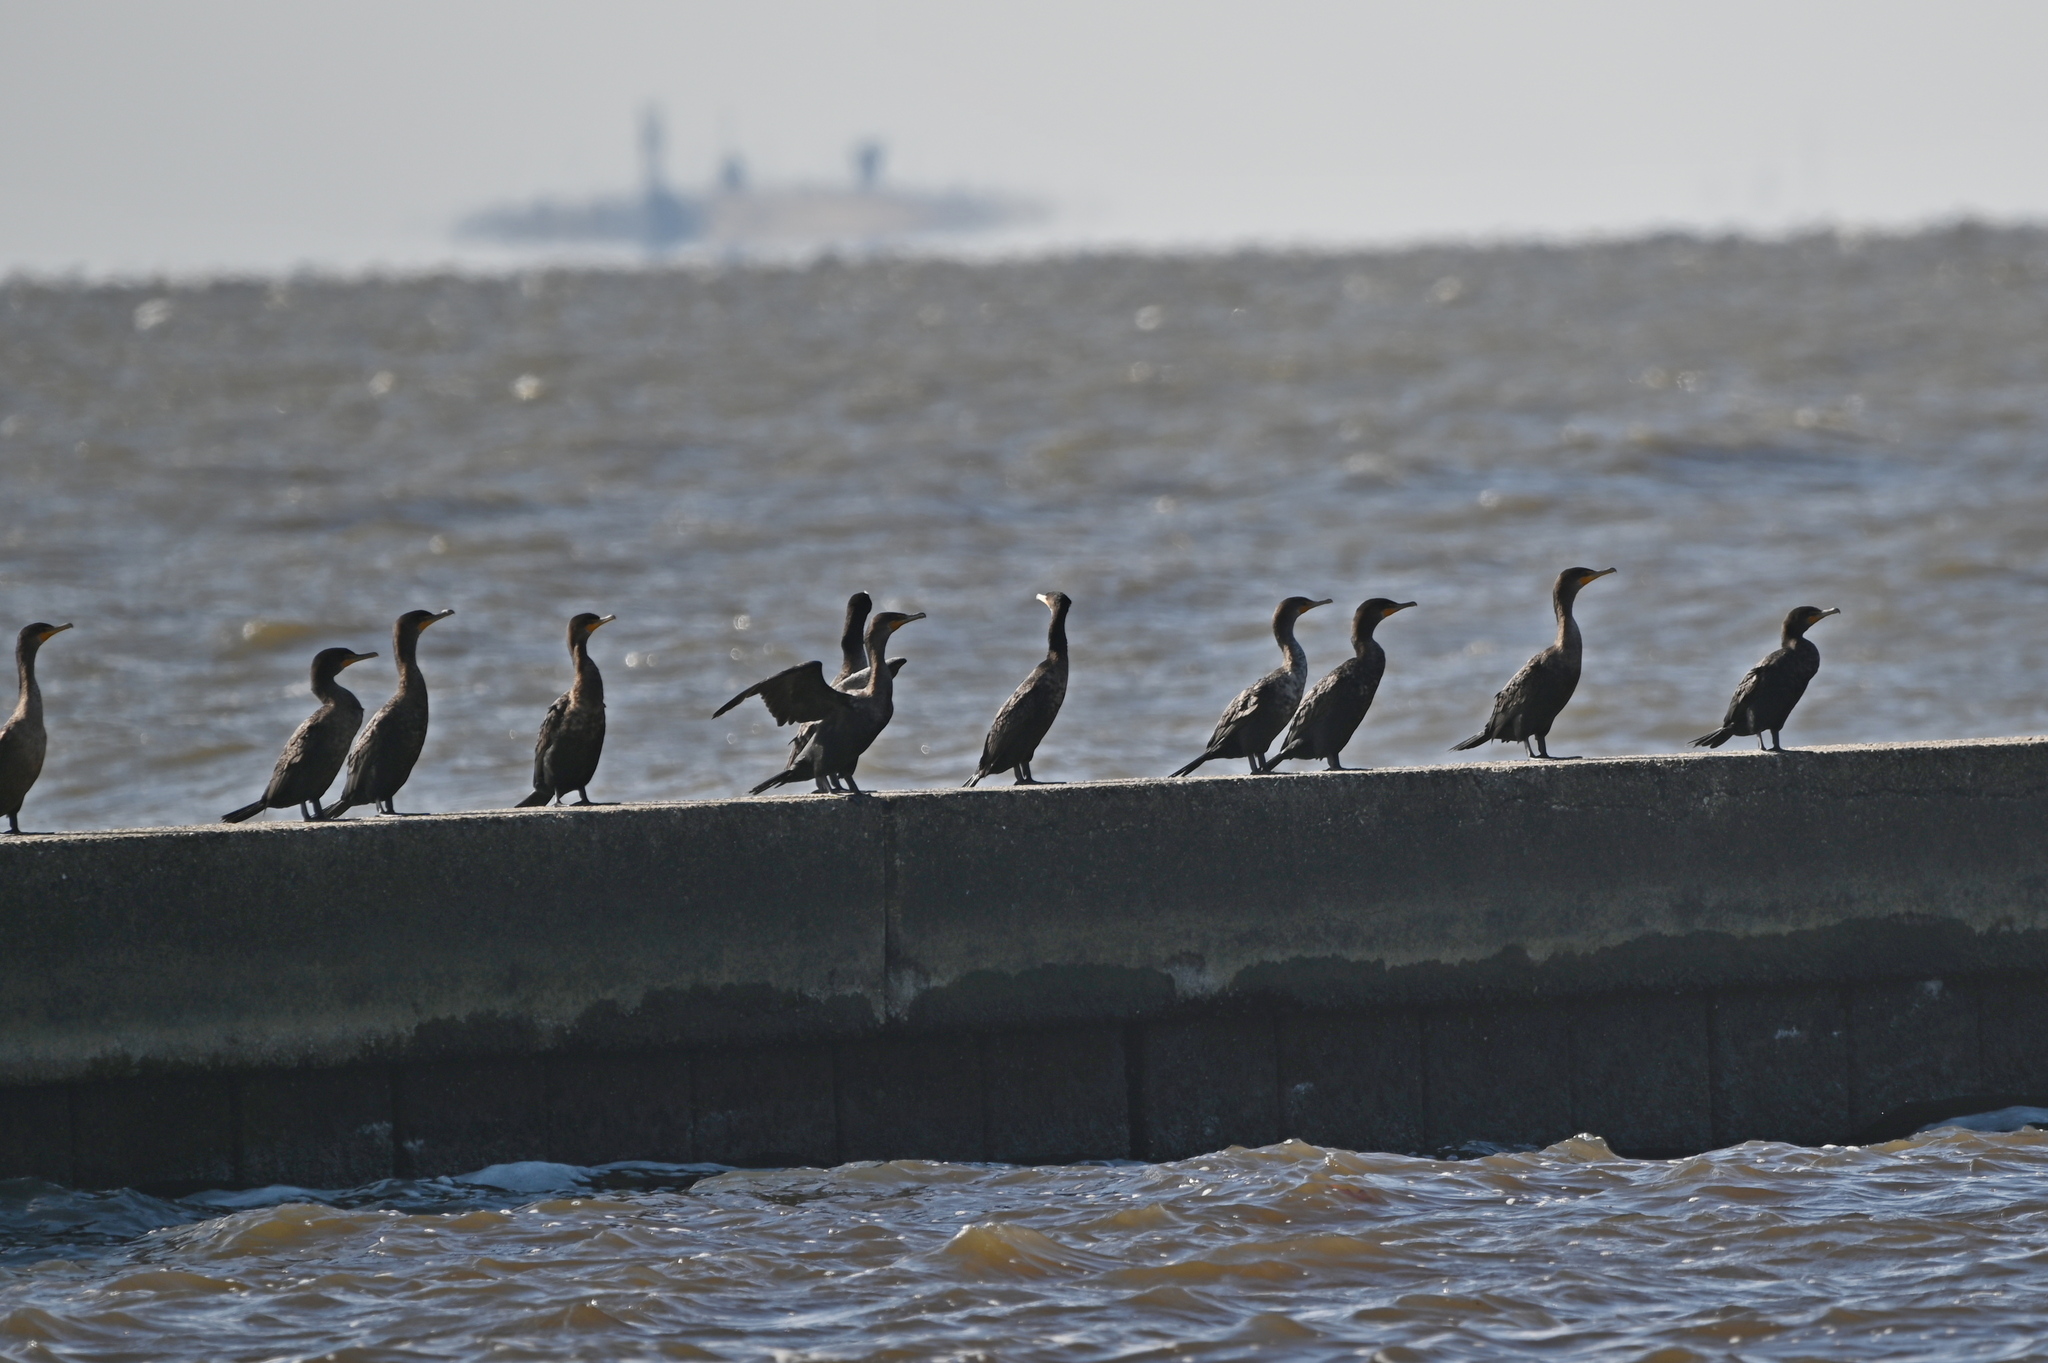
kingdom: Animalia
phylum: Chordata
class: Aves
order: Suliformes
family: Phalacrocoracidae
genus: Phalacrocorax
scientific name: Phalacrocorax auritus
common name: Double-crested cormorant
